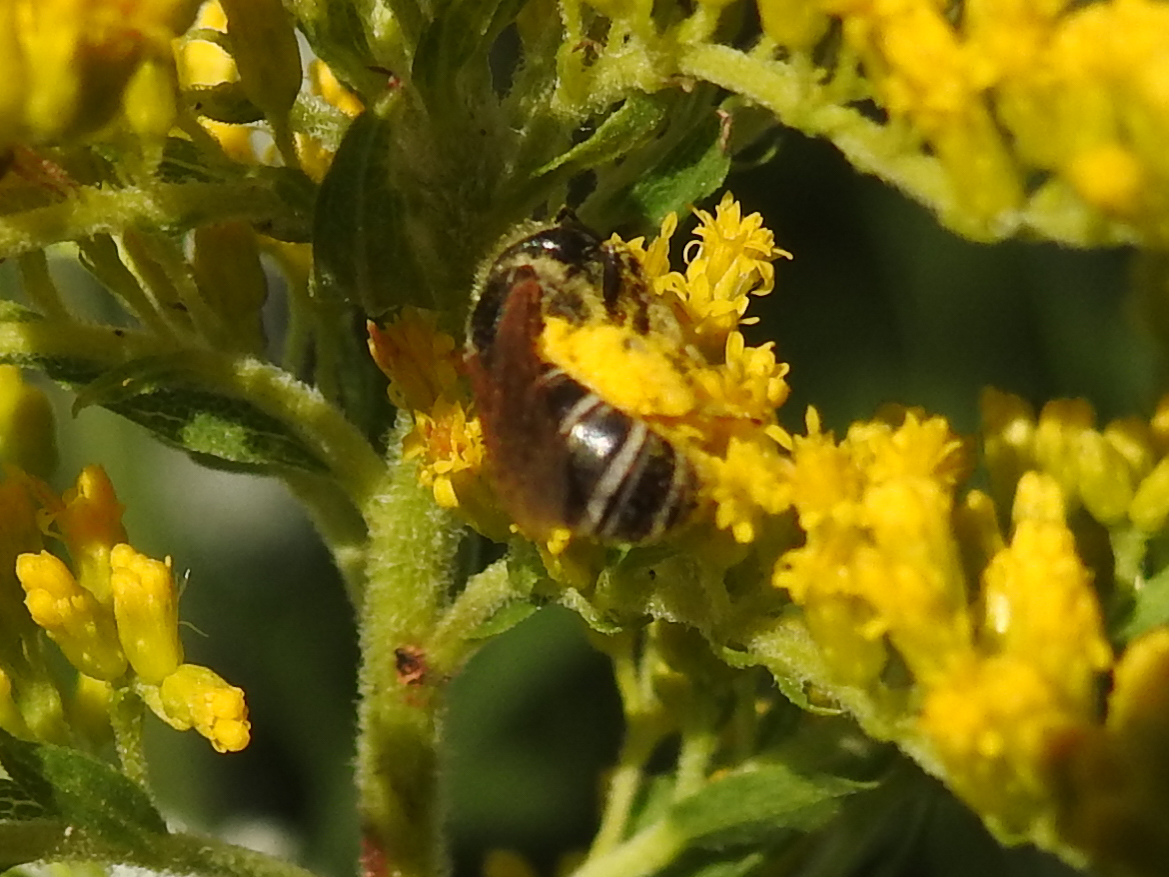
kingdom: Animalia
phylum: Arthropoda
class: Insecta
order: Hymenoptera
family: Halictidae
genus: Halictus
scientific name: Halictus ligatus
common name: Ligated furrow bee
